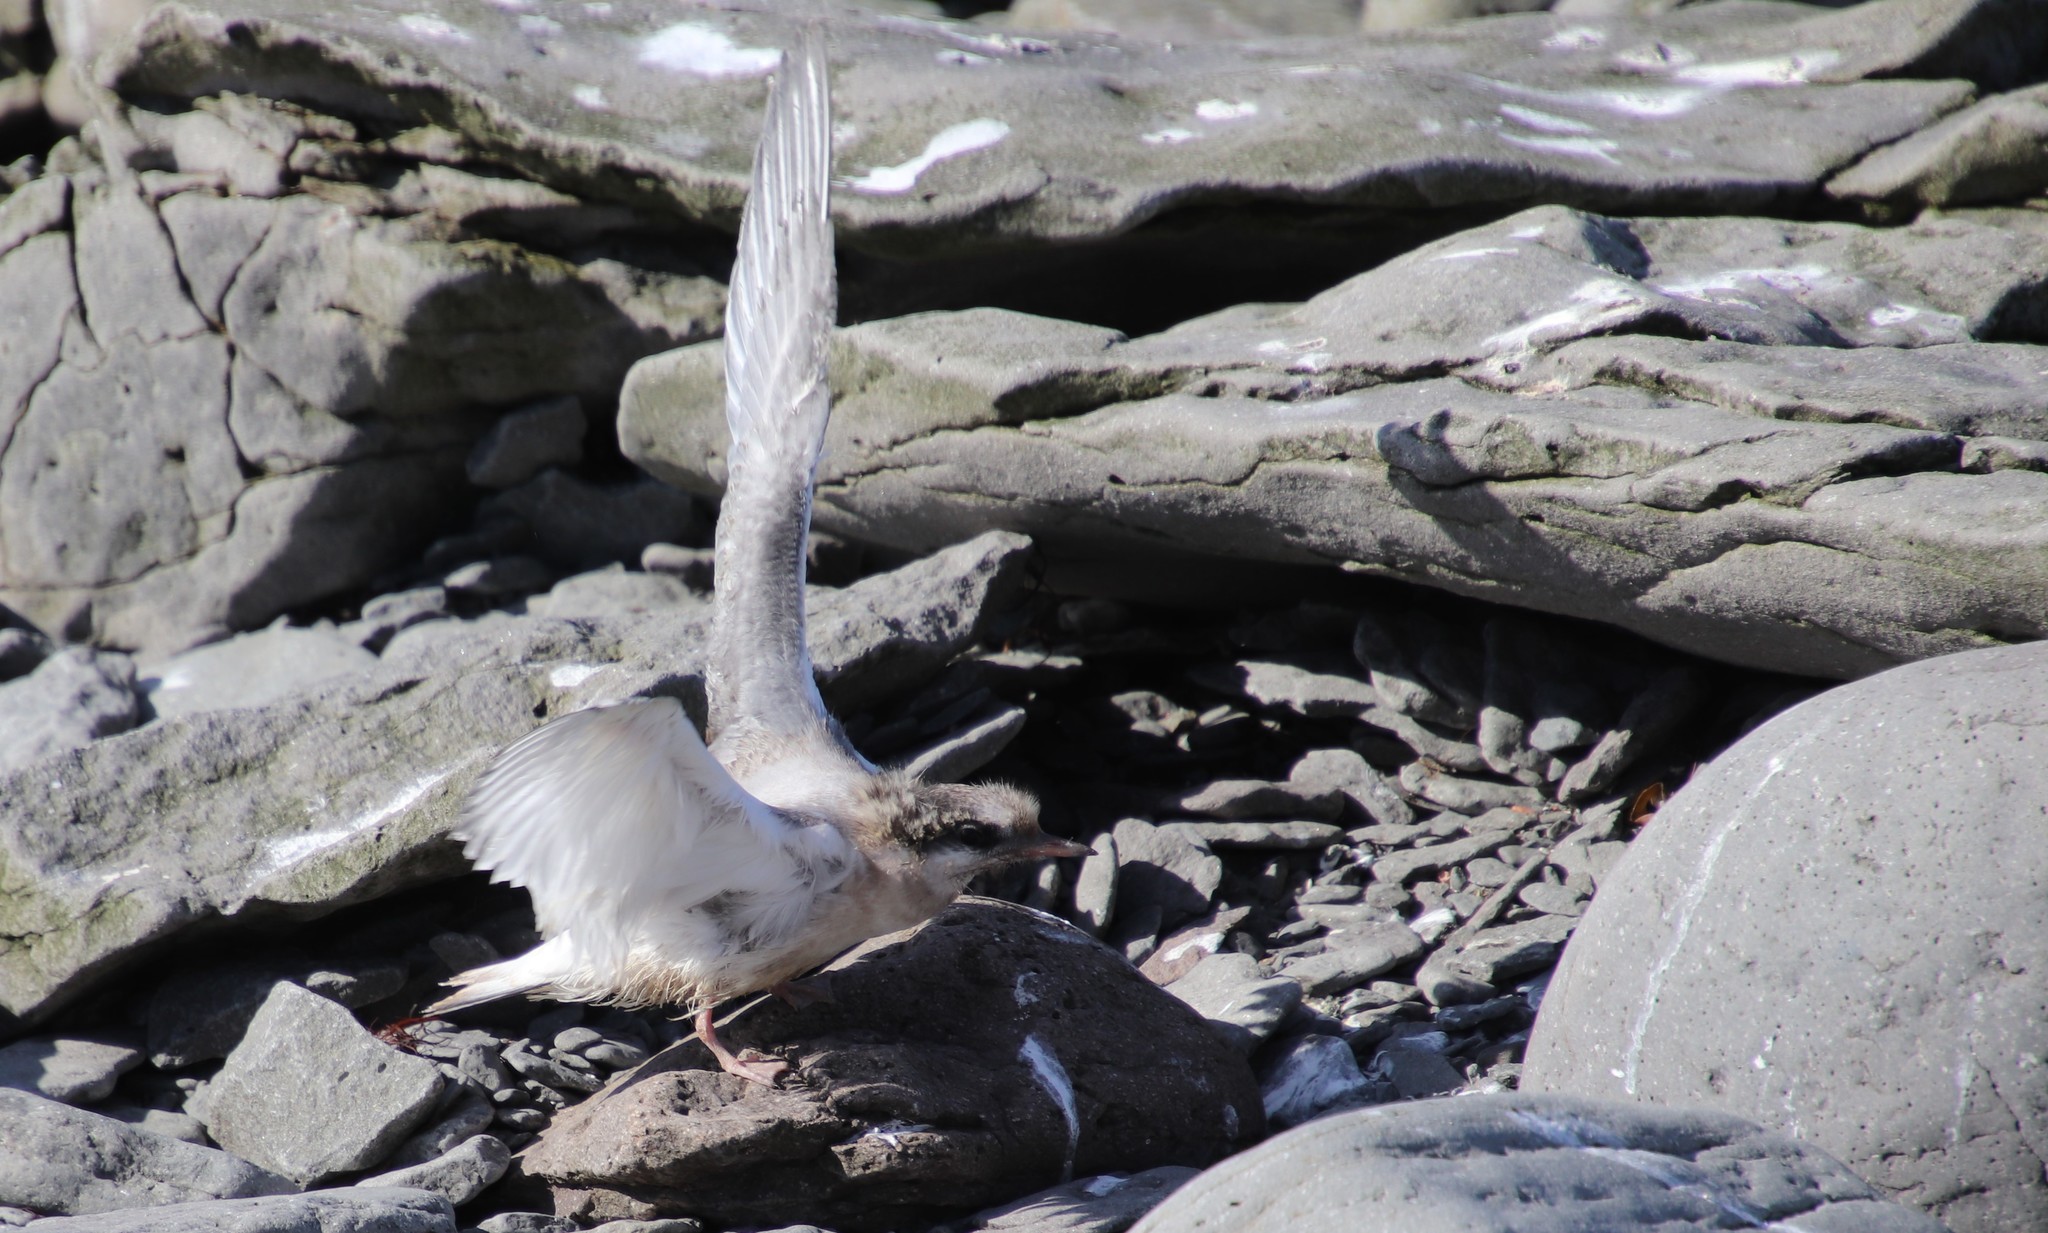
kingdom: Animalia
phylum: Chordata
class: Aves
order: Charadriiformes
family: Laridae
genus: Sterna
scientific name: Sterna paradisaea
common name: Arctic tern
